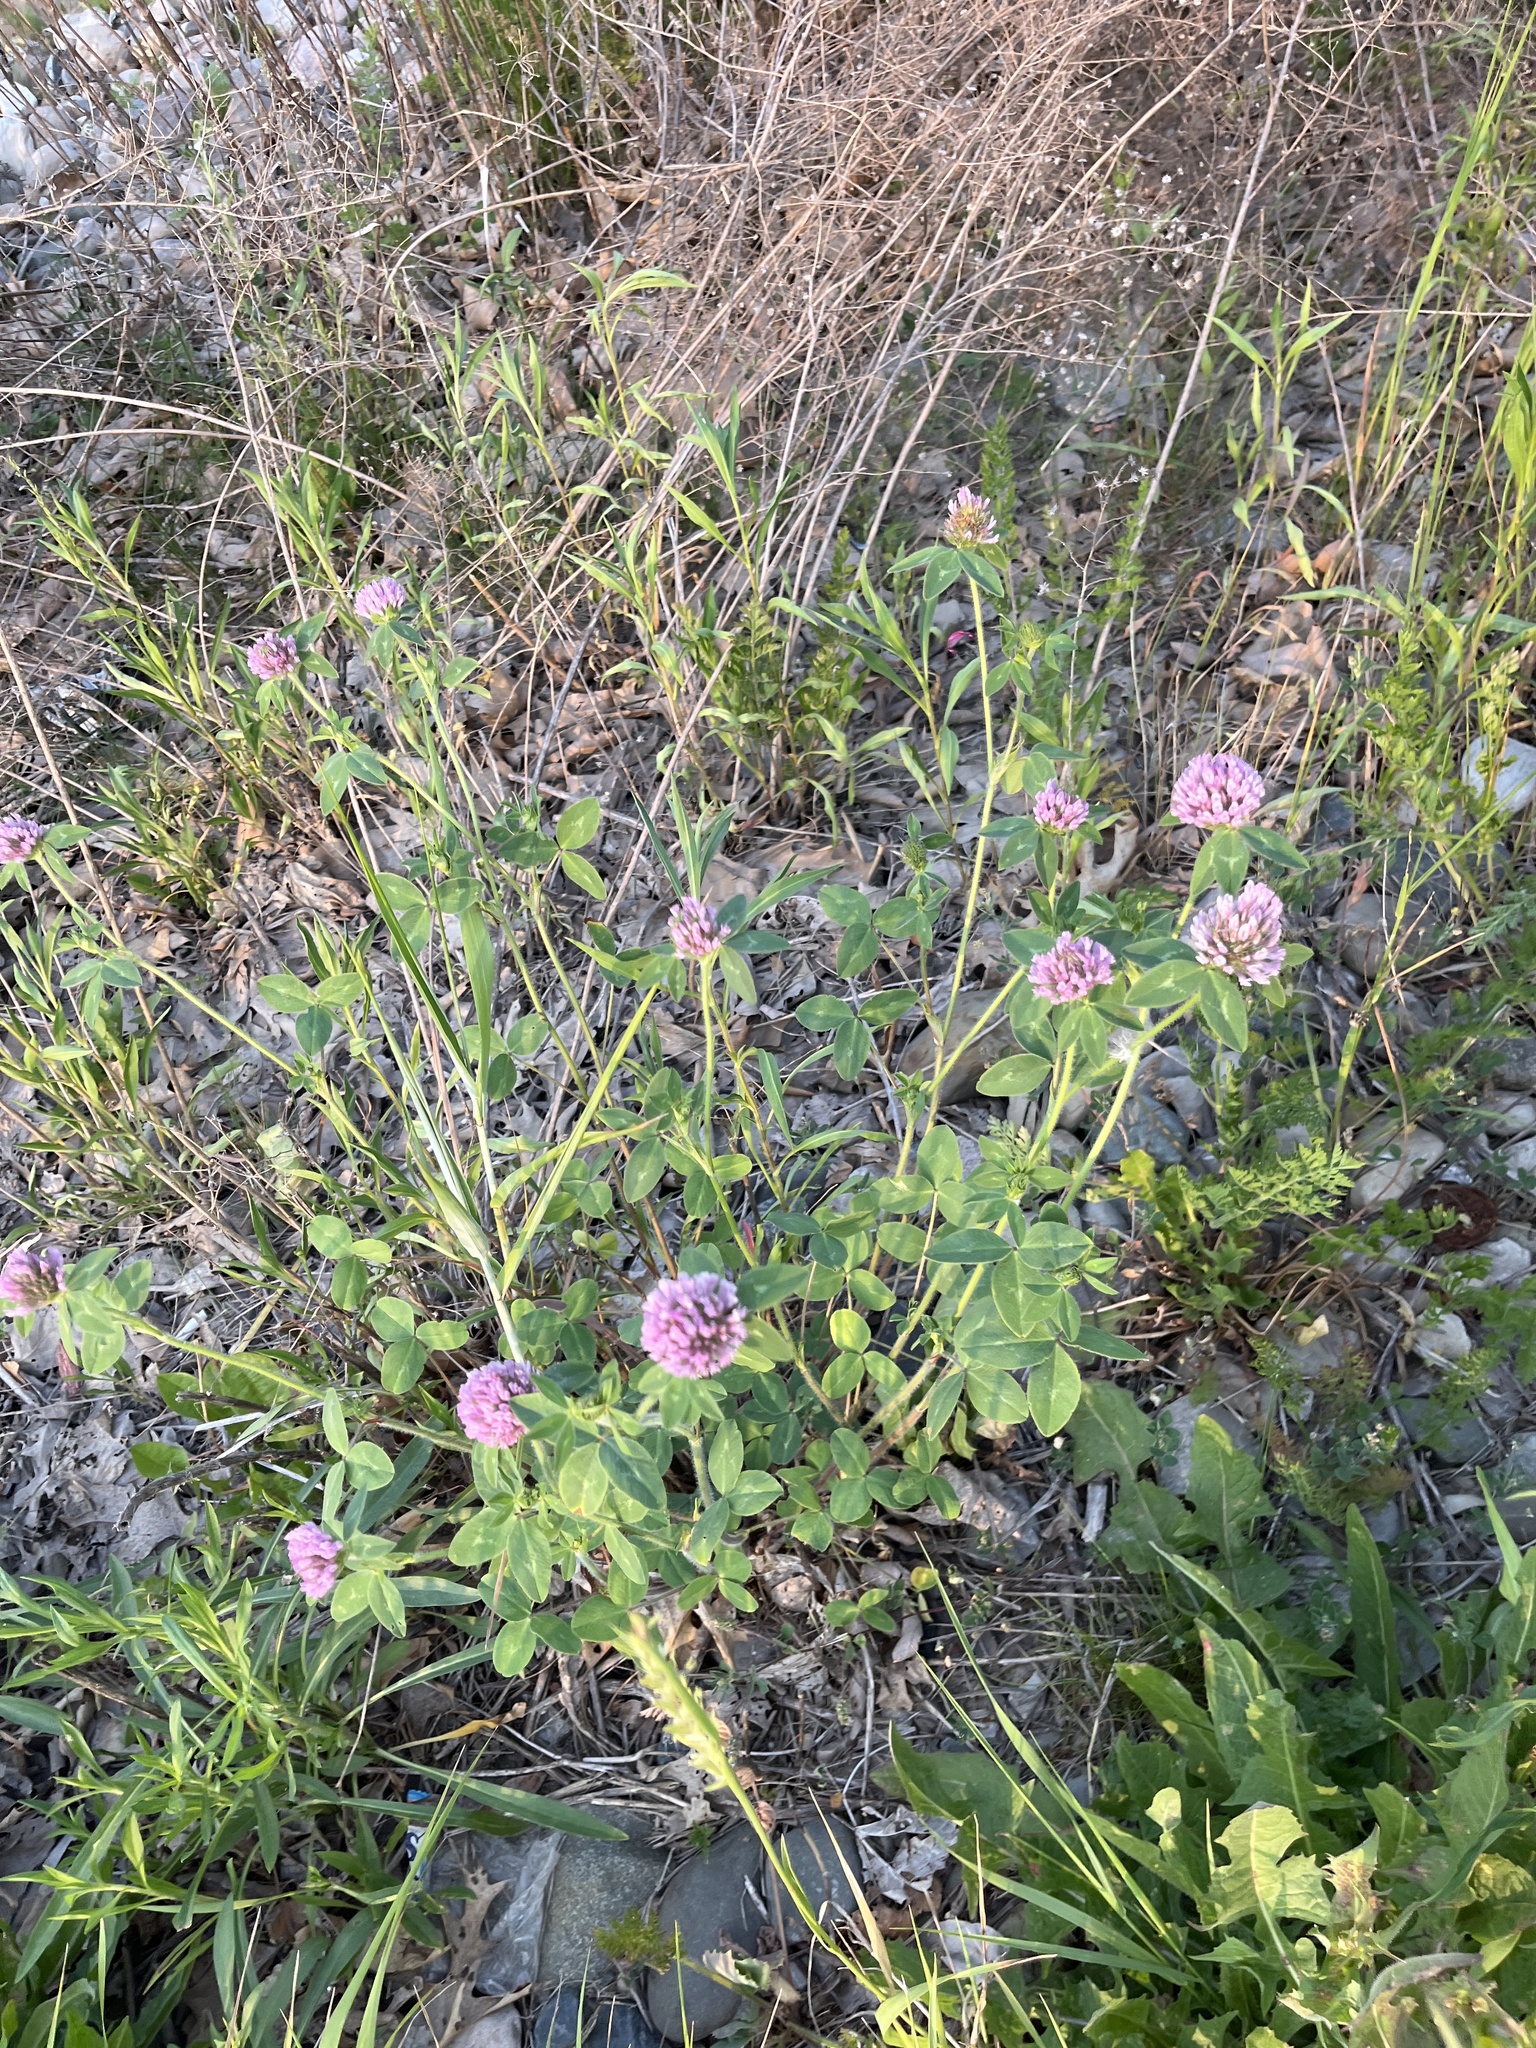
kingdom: Plantae
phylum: Tracheophyta
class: Magnoliopsida
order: Fabales
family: Fabaceae
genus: Trifolium
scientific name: Trifolium pratense
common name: Red clover
